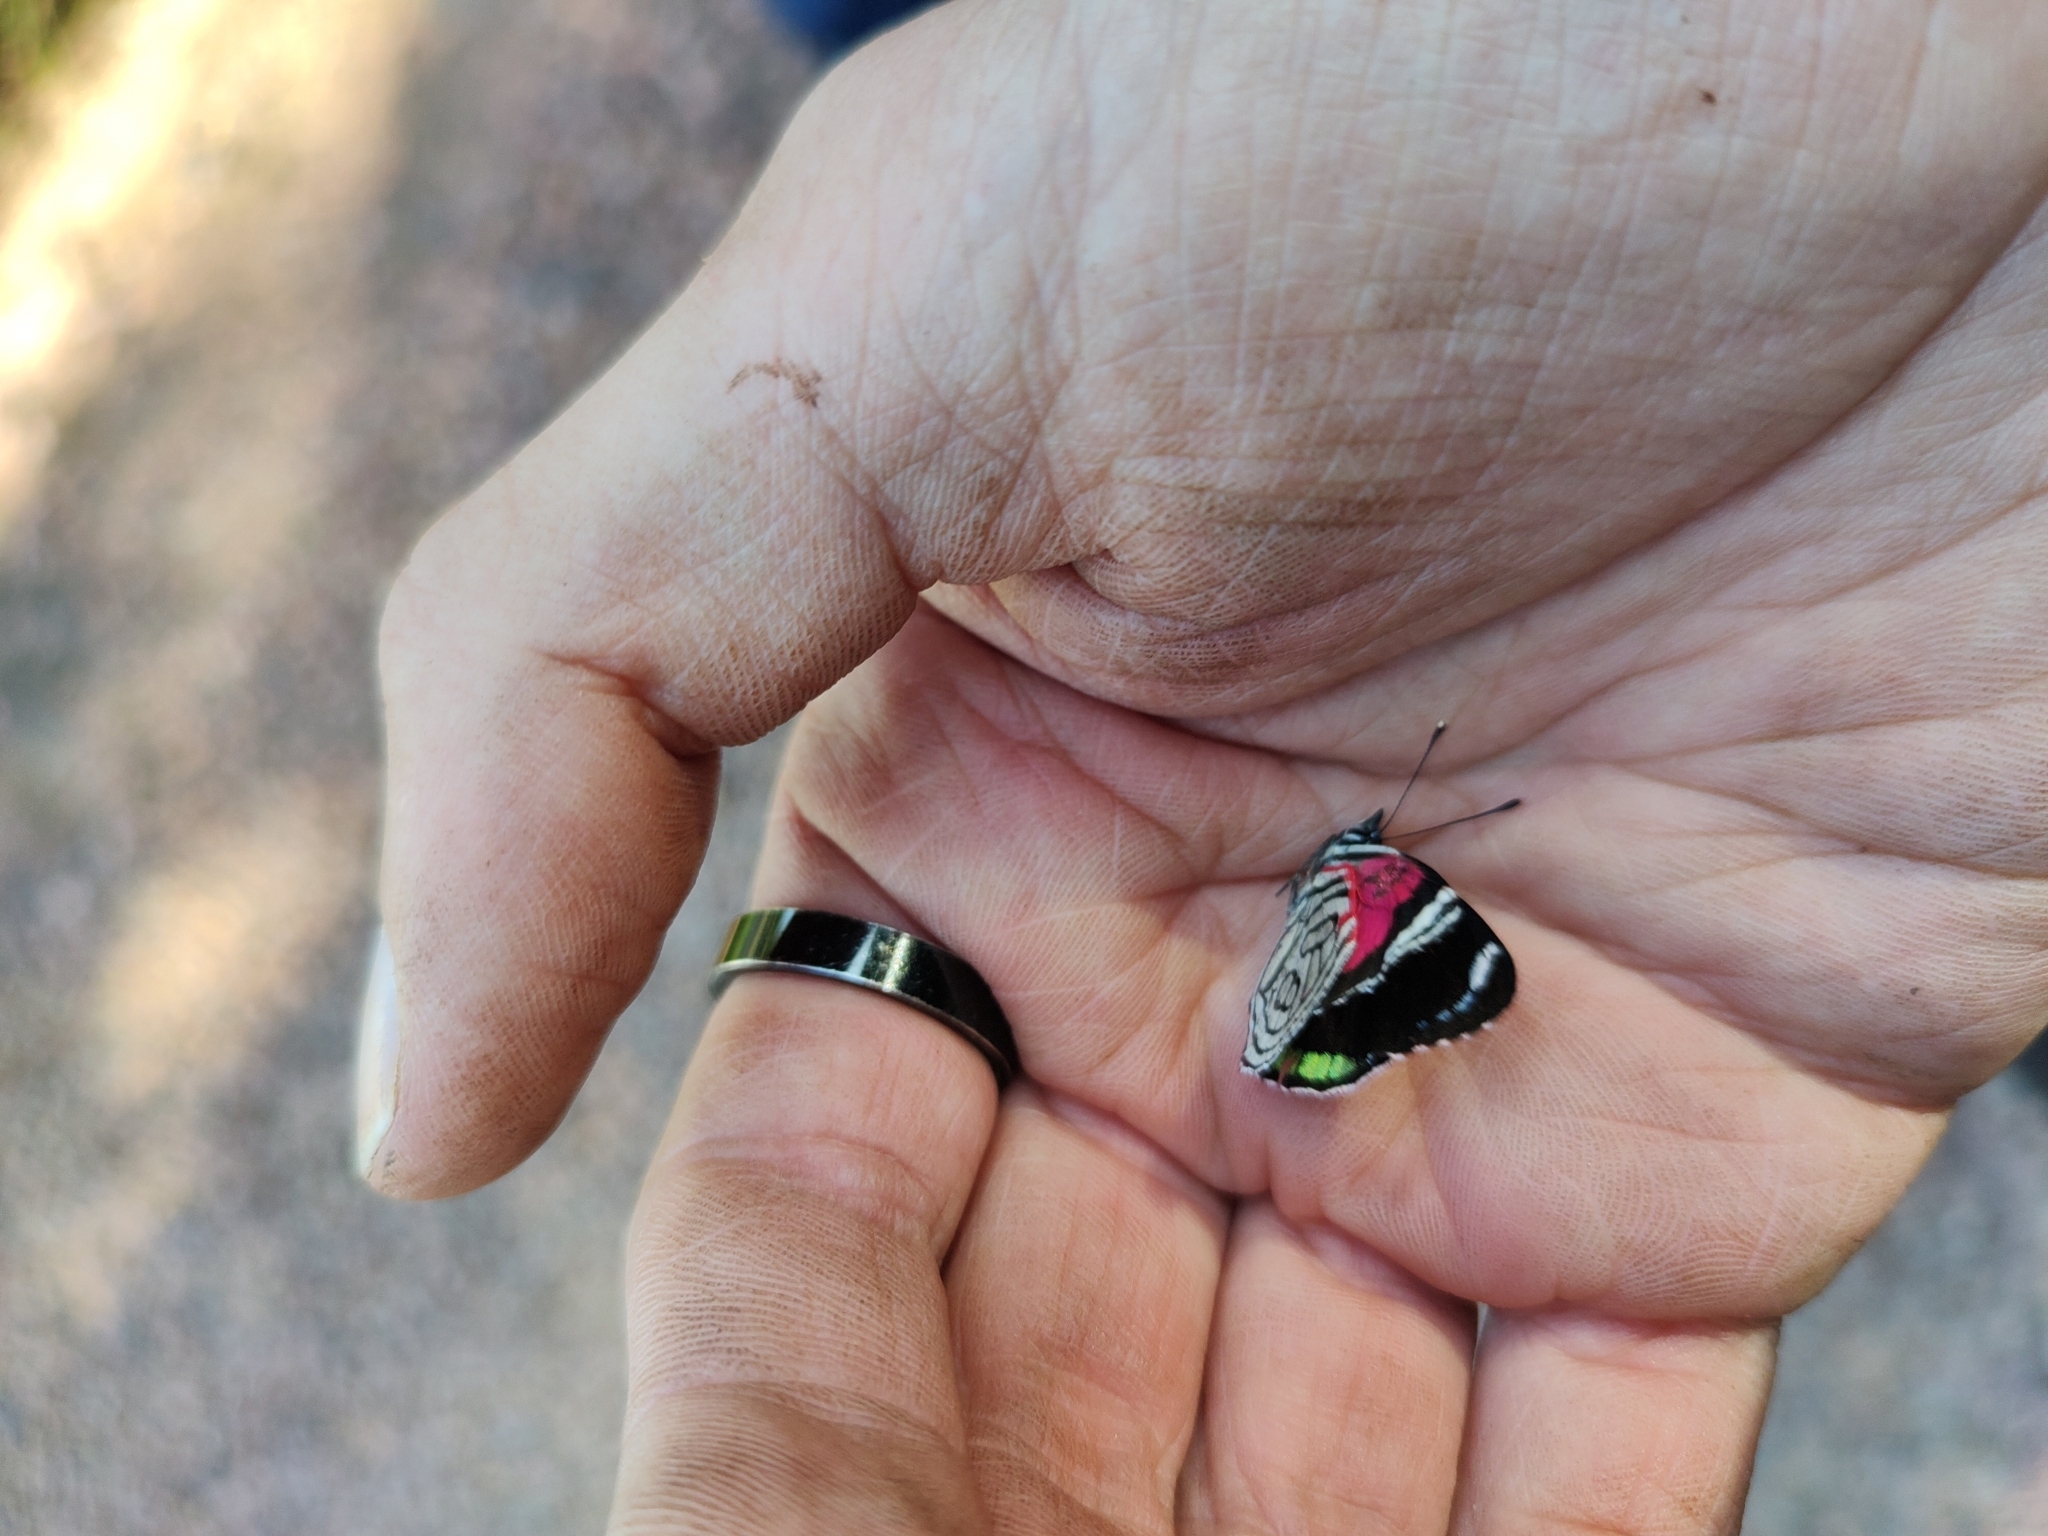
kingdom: Animalia
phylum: Arthropoda
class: Insecta
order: Lepidoptera
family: Nymphalidae
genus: Diaethria
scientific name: Diaethria candrena
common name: Number eighty
